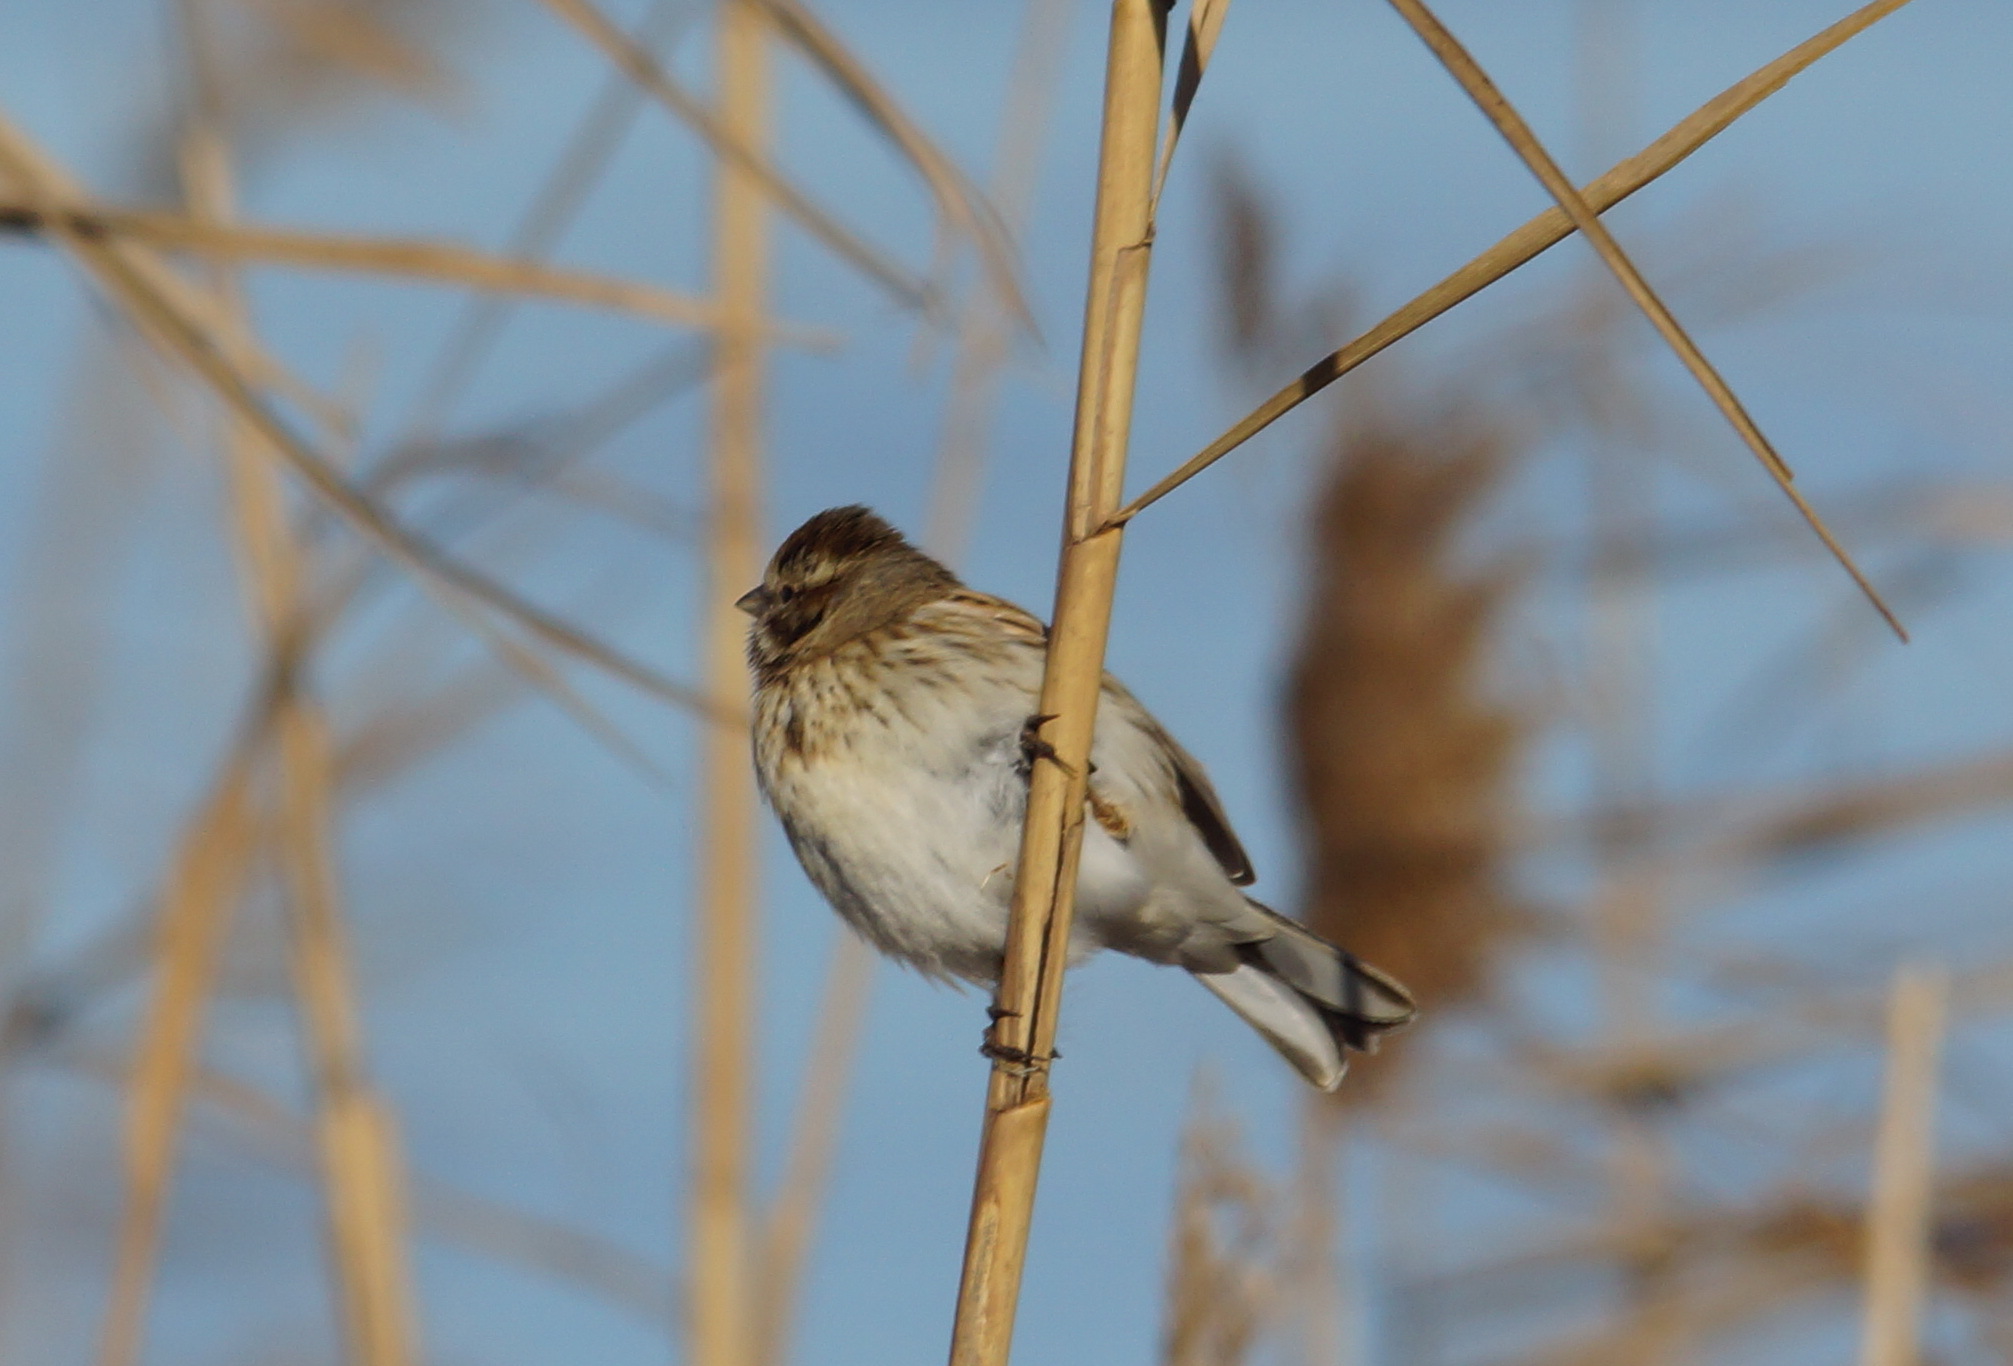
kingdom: Animalia
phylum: Chordata
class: Aves
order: Passeriformes
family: Emberizidae
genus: Emberiza
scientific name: Emberiza schoeniclus
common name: Reed bunting
